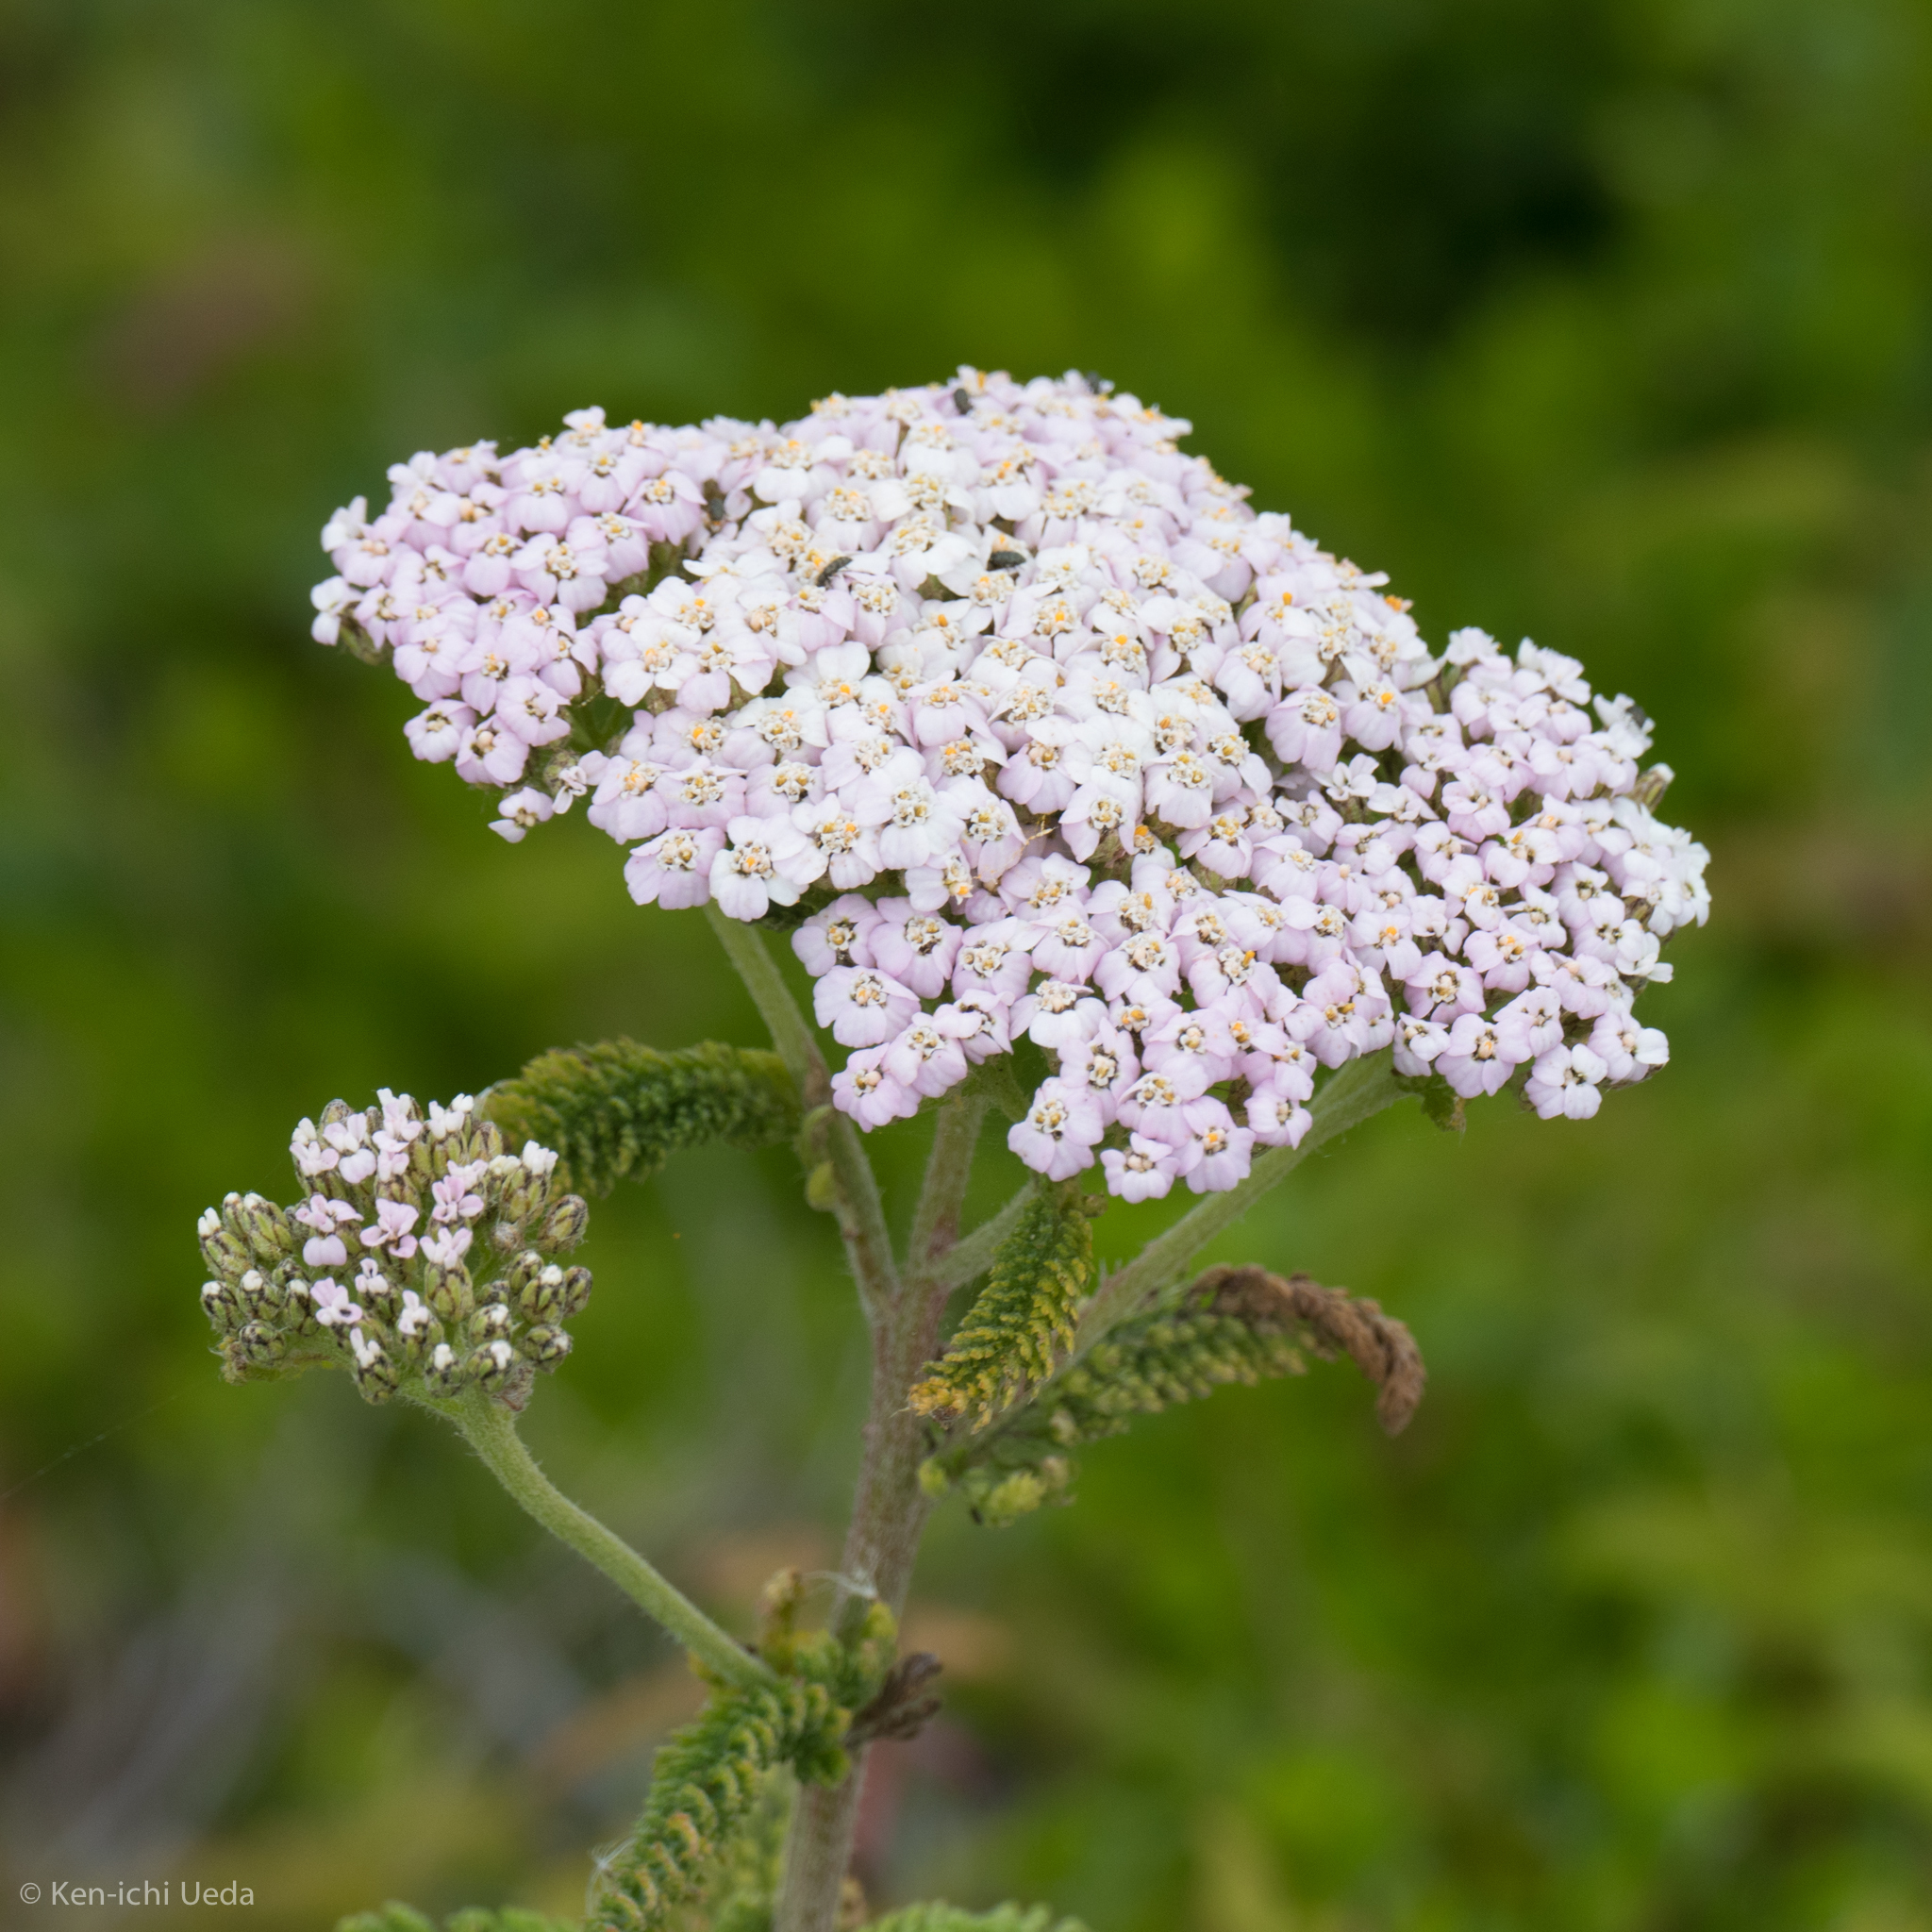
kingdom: Plantae
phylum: Tracheophyta
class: Magnoliopsida
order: Asterales
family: Asteraceae
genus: Achillea
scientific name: Achillea millefolium
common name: Yarrow
